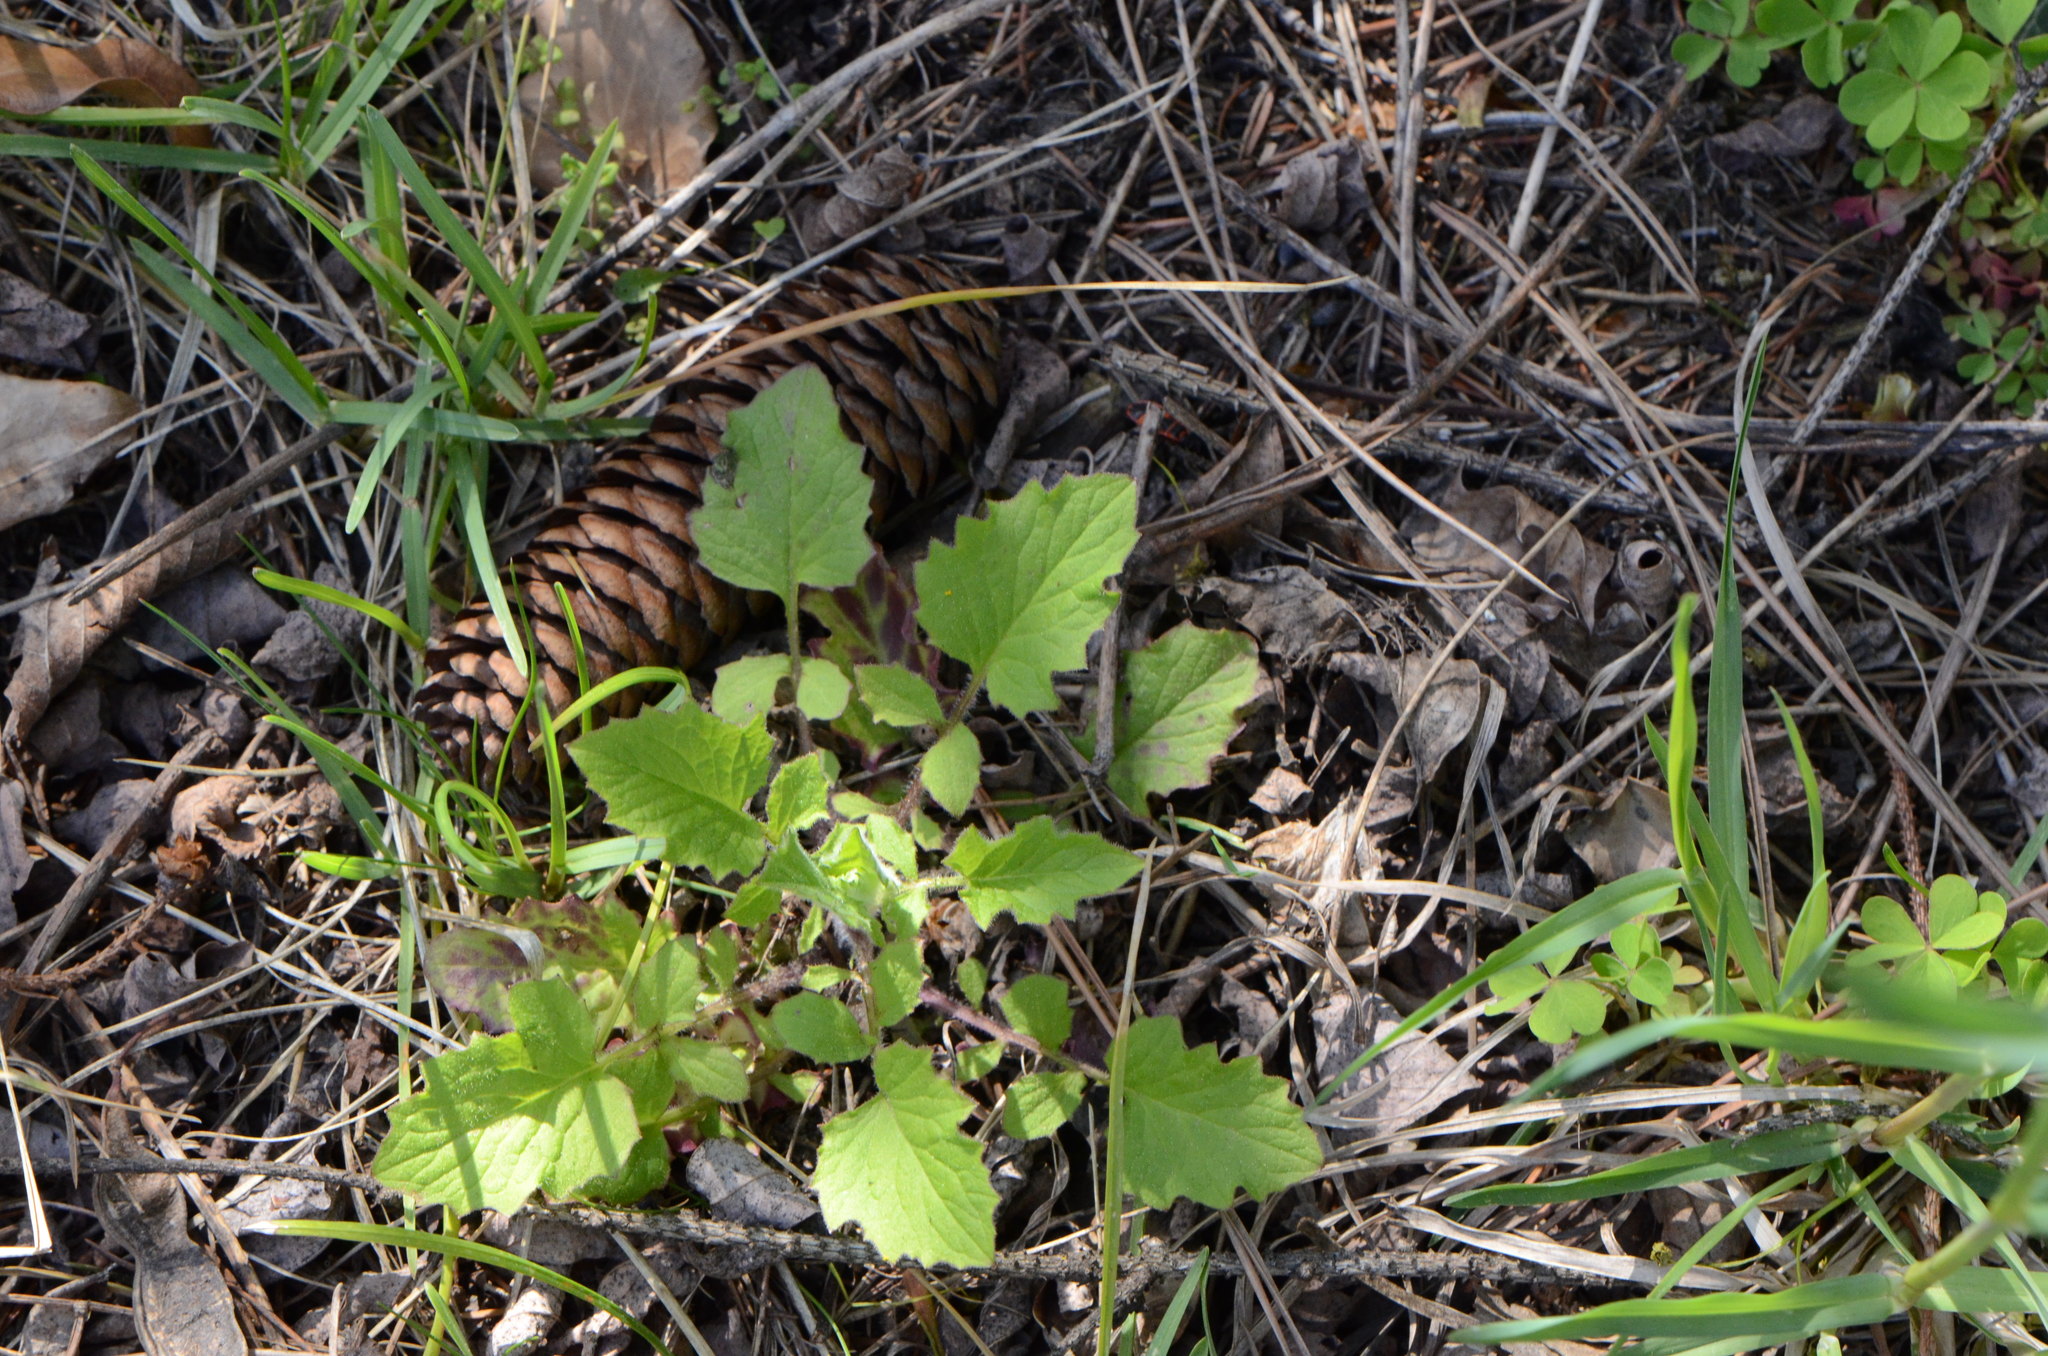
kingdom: Plantae
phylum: Tracheophyta
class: Magnoliopsida
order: Asterales
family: Asteraceae
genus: Lapsana
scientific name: Lapsana communis
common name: Nipplewort
